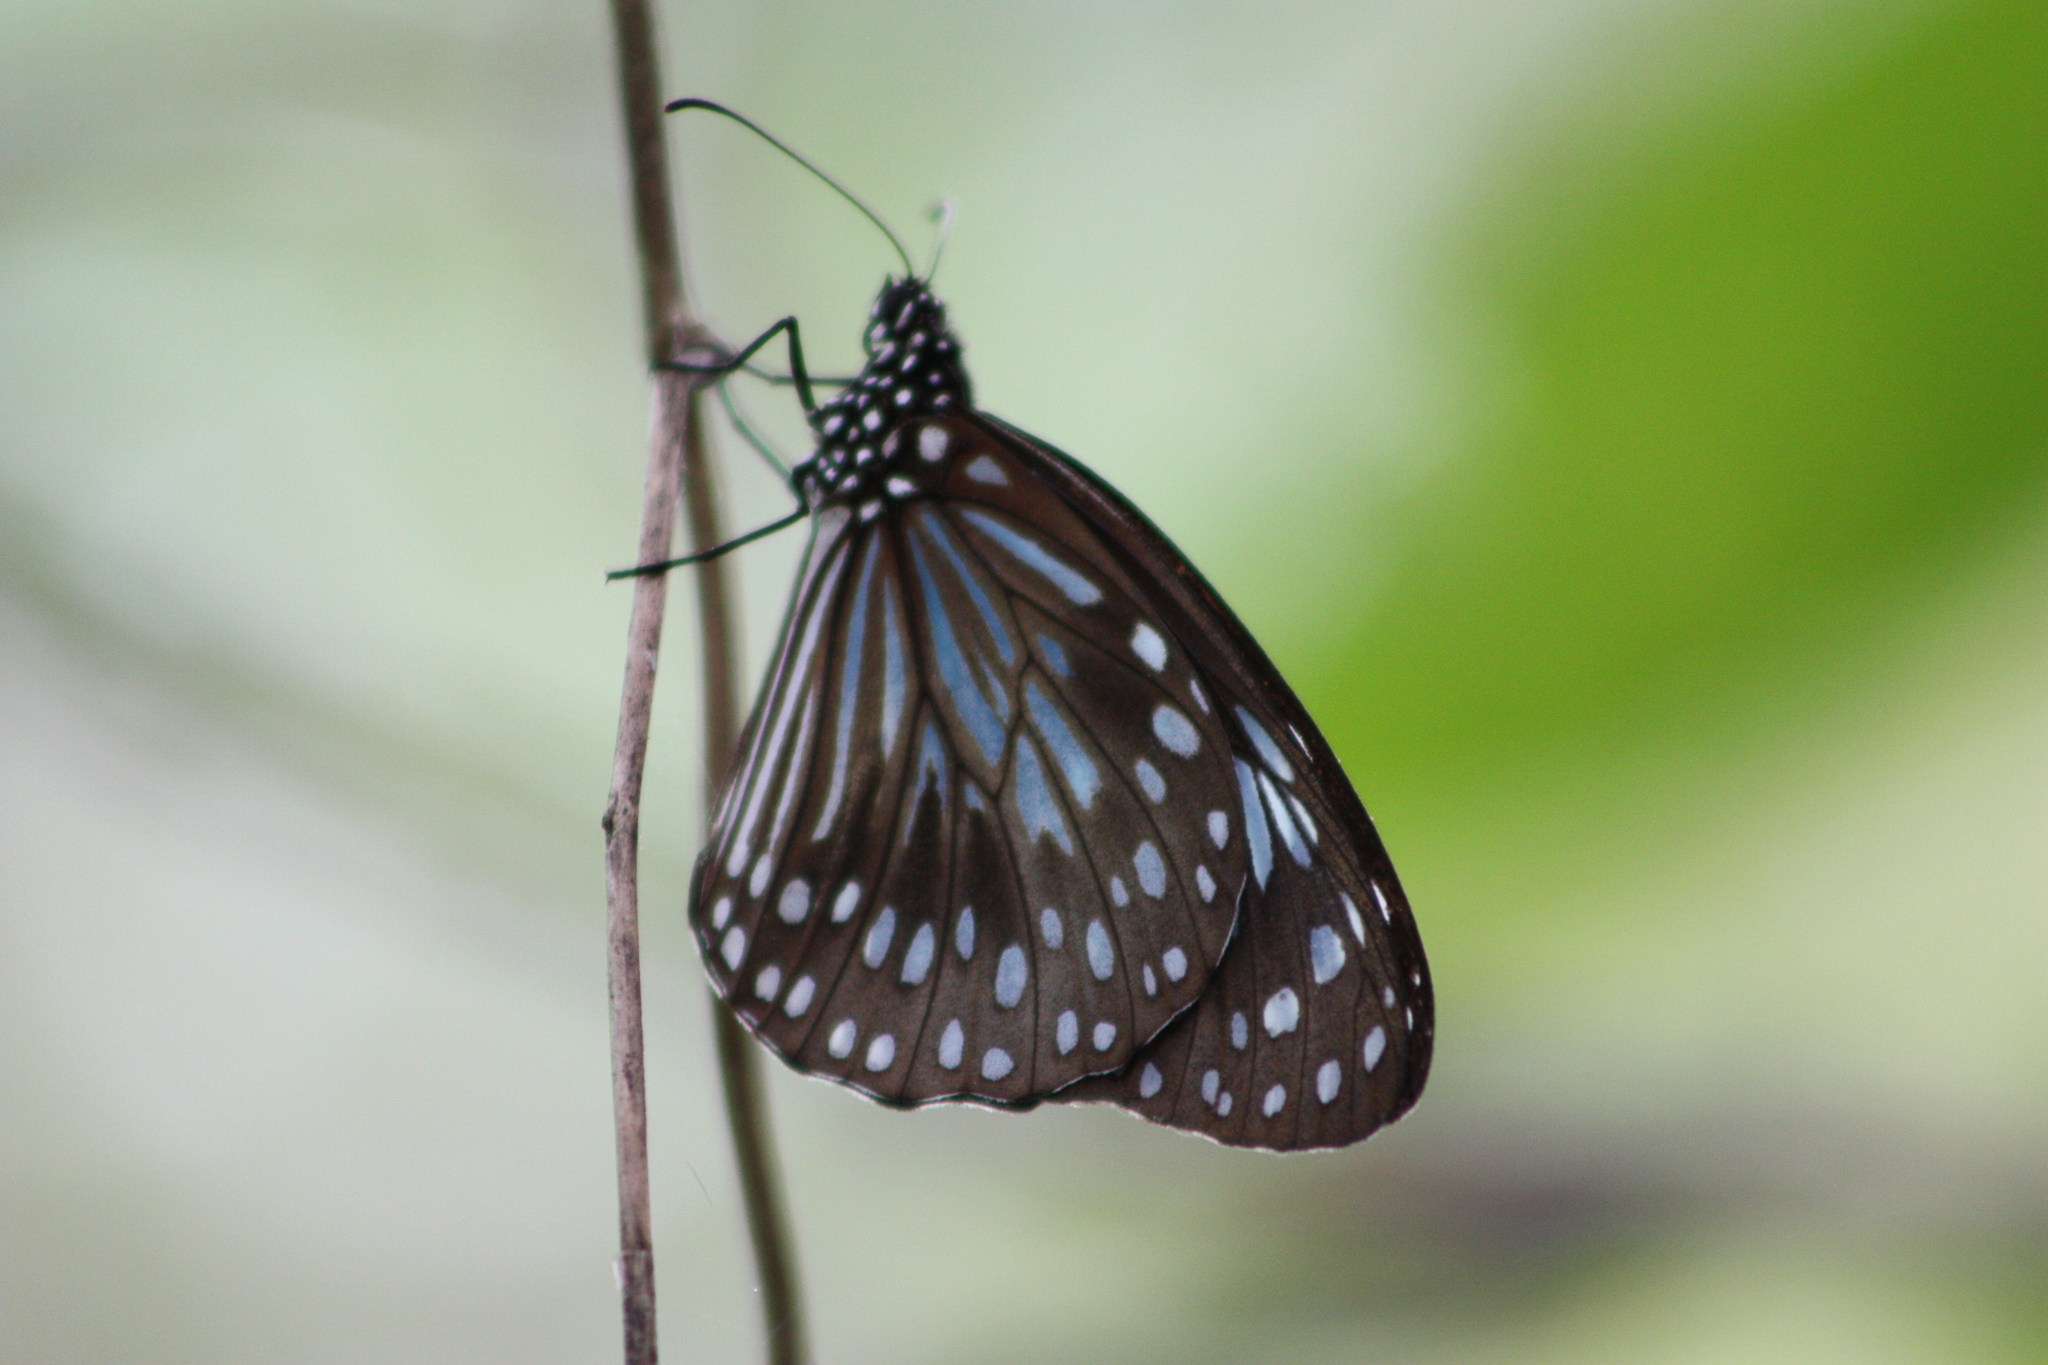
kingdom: Animalia
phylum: Arthropoda
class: Insecta
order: Lepidoptera
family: Nymphalidae
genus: Tirumala
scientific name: Tirumala hamata
